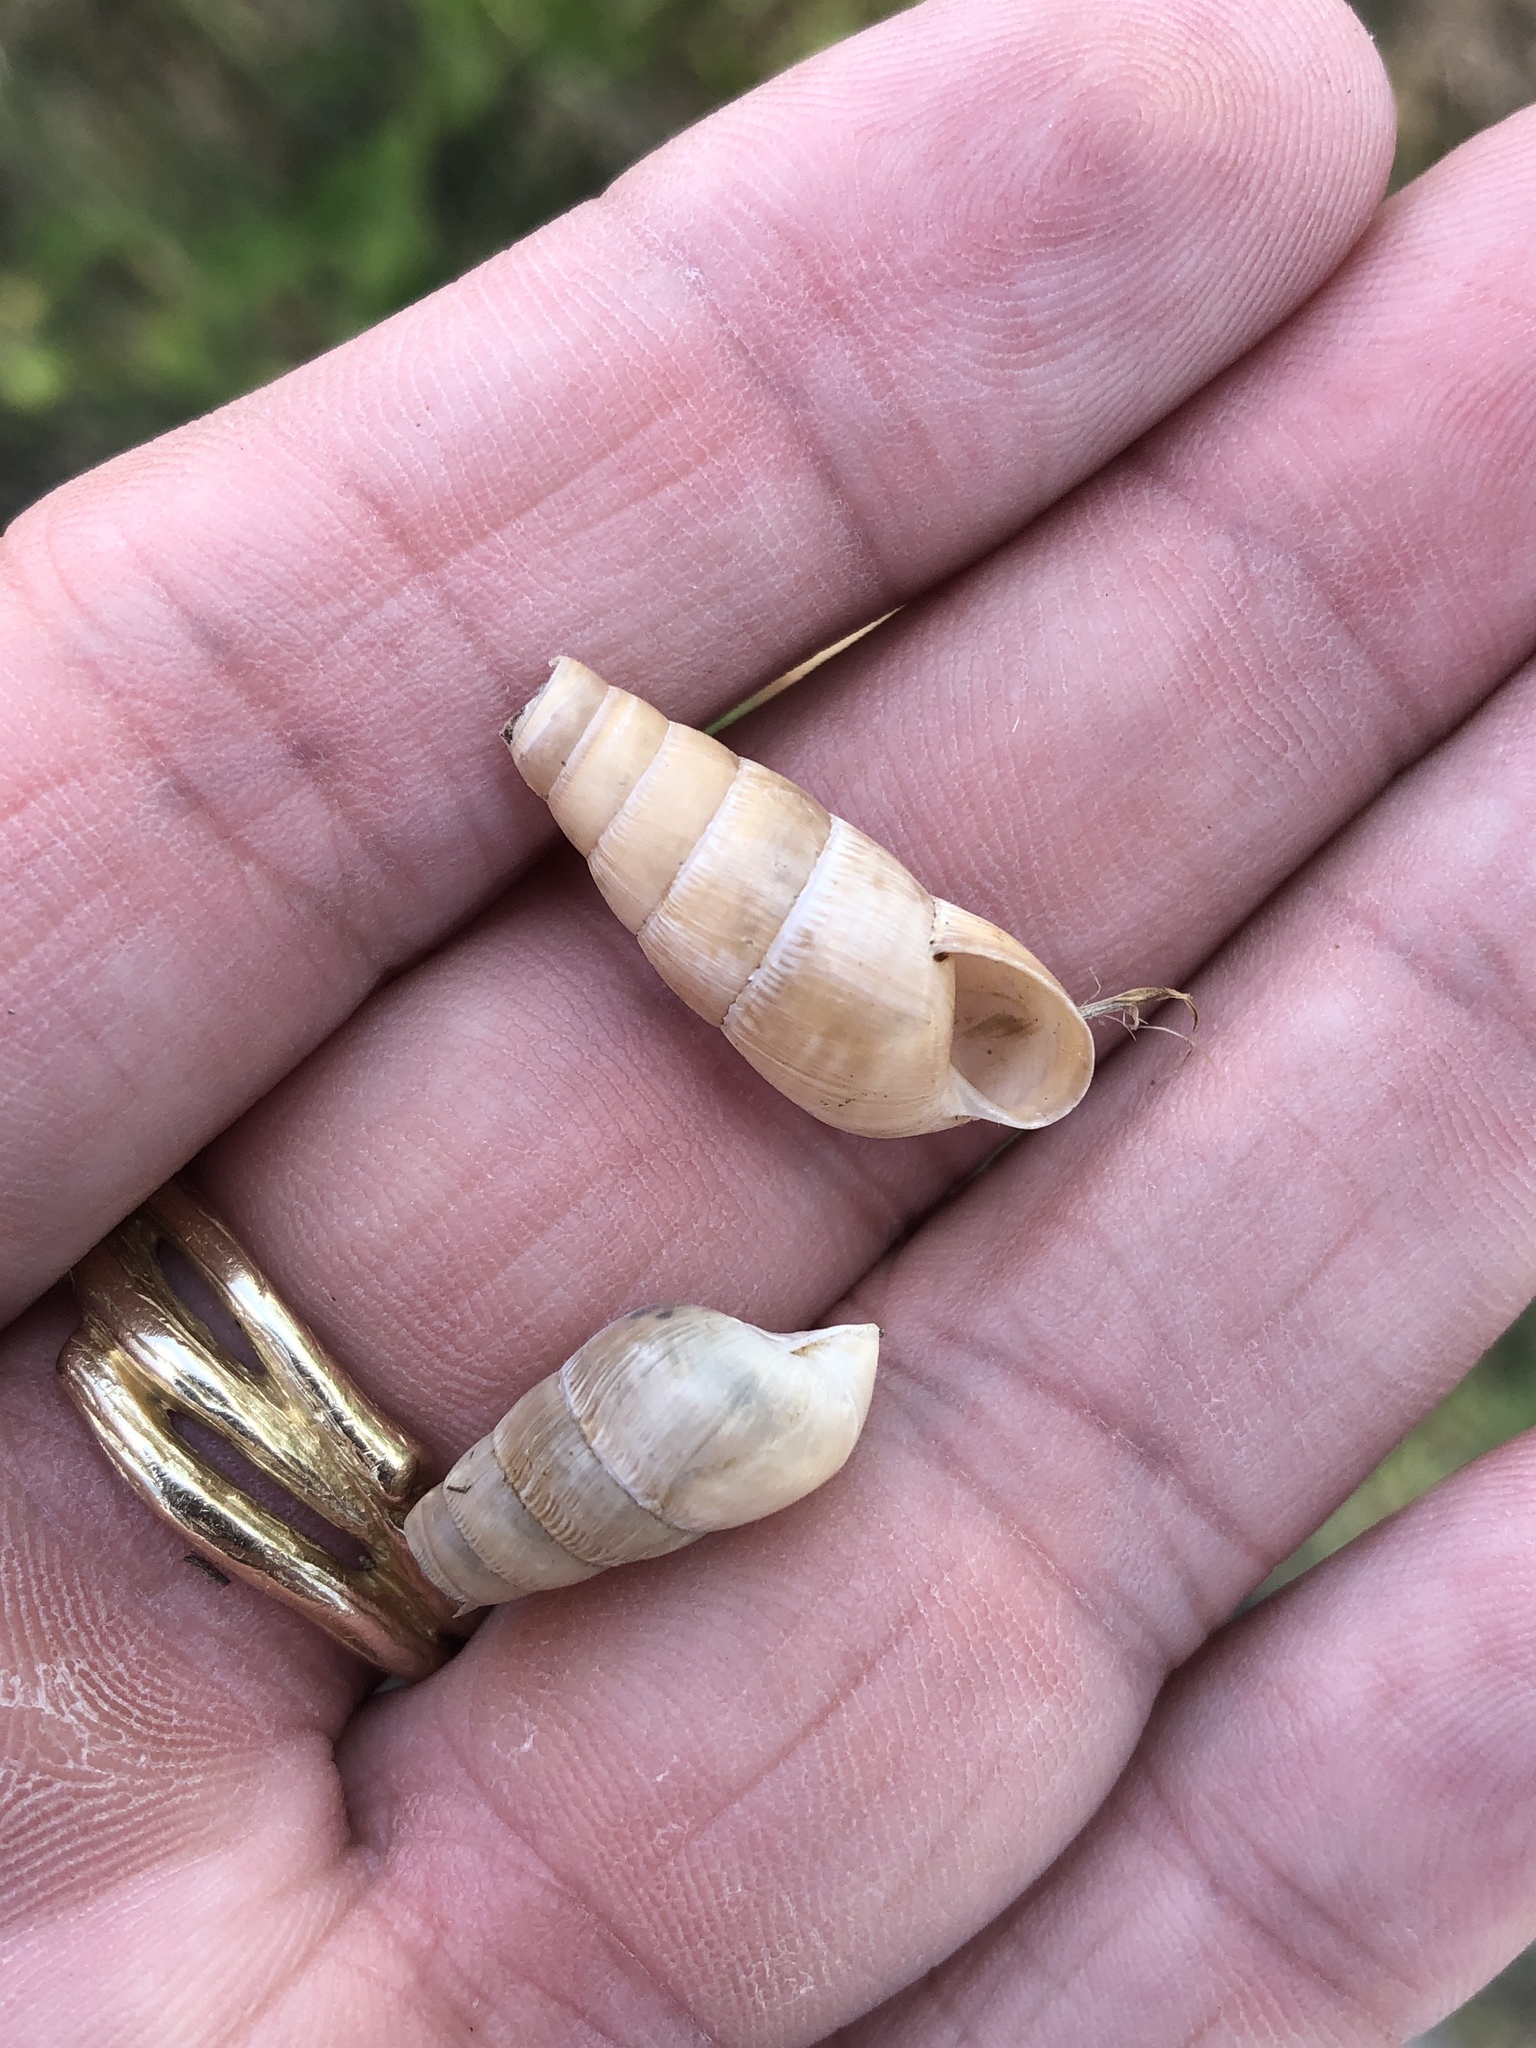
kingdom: Animalia
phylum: Mollusca
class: Gastropoda
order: Stylommatophora
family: Achatinidae
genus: Rumina
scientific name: Rumina decollata
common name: Decollate snail
